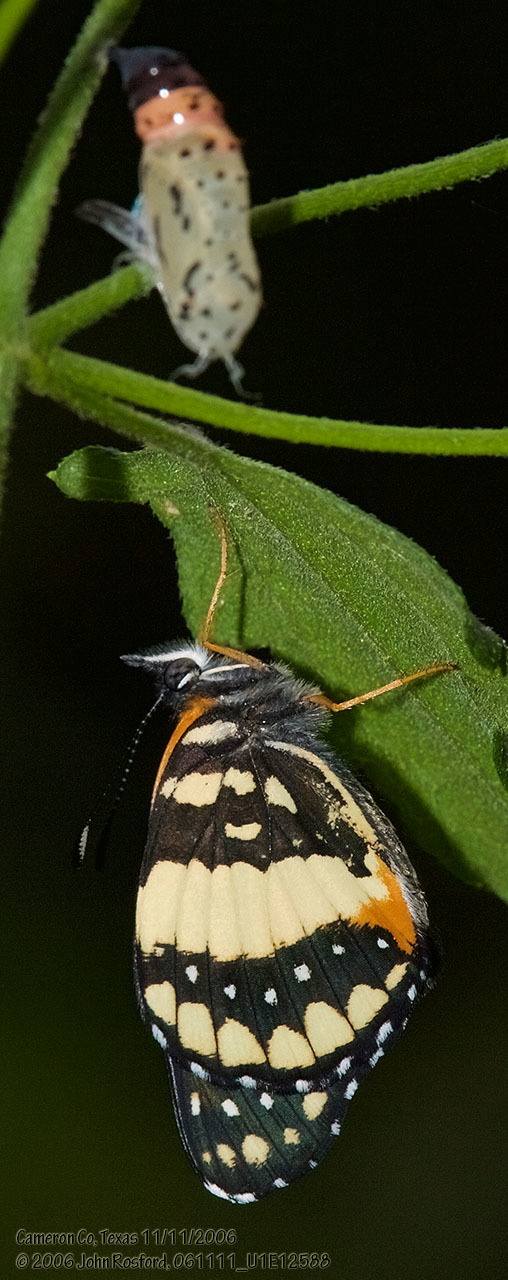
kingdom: Animalia
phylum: Arthropoda
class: Insecta
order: Lepidoptera
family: Nymphalidae
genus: Chlosyne
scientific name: Chlosyne lacinia
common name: Bordered patch
